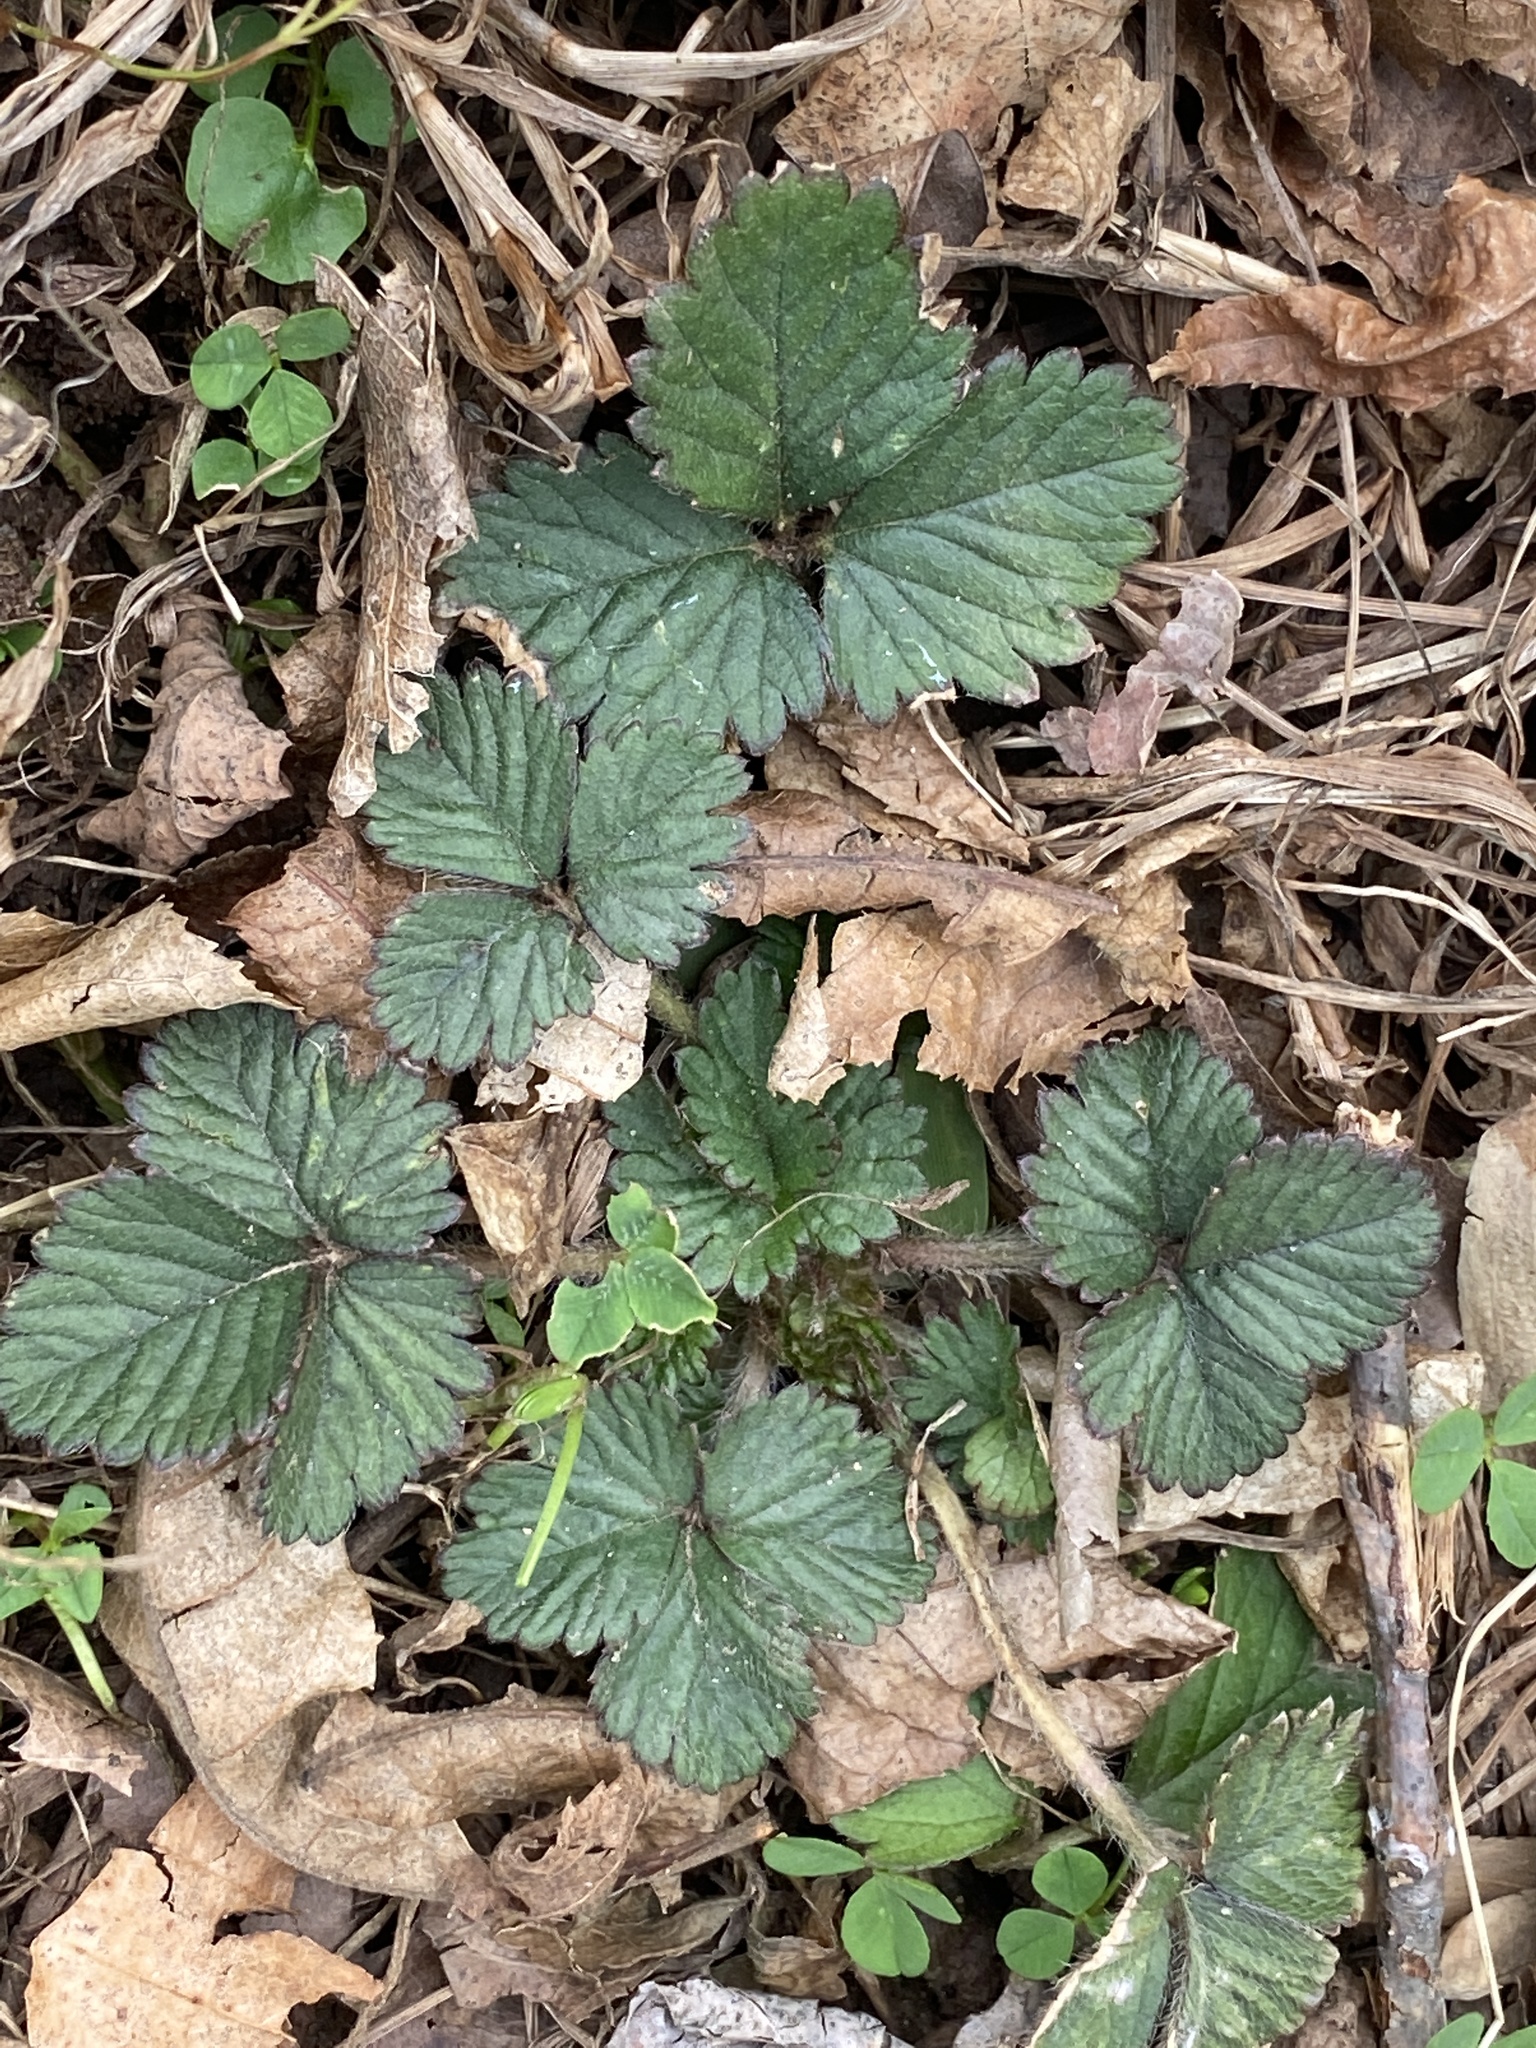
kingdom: Plantae
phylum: Tracheophyta
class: Magnoliopsida
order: Rosales
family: Rosaceae
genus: Potentilla
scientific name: Potentilla indica
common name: Yellow-flowered strawberry
